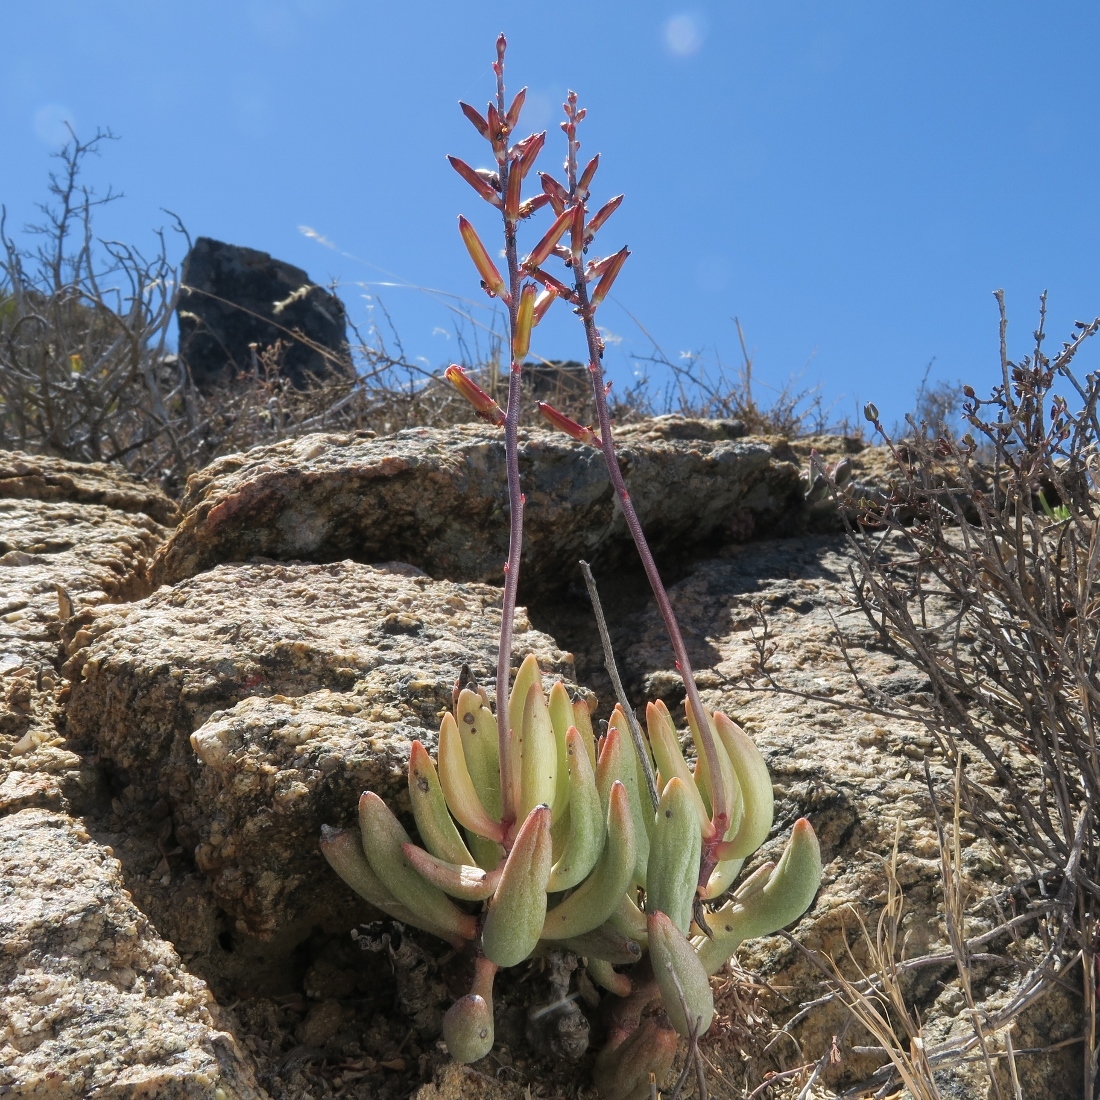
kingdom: Plantae
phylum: Tracheophyta
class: Magnoliopsida
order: Saxifragales
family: Crassulaceae
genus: Adromischus
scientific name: Adromischus filicaulis
